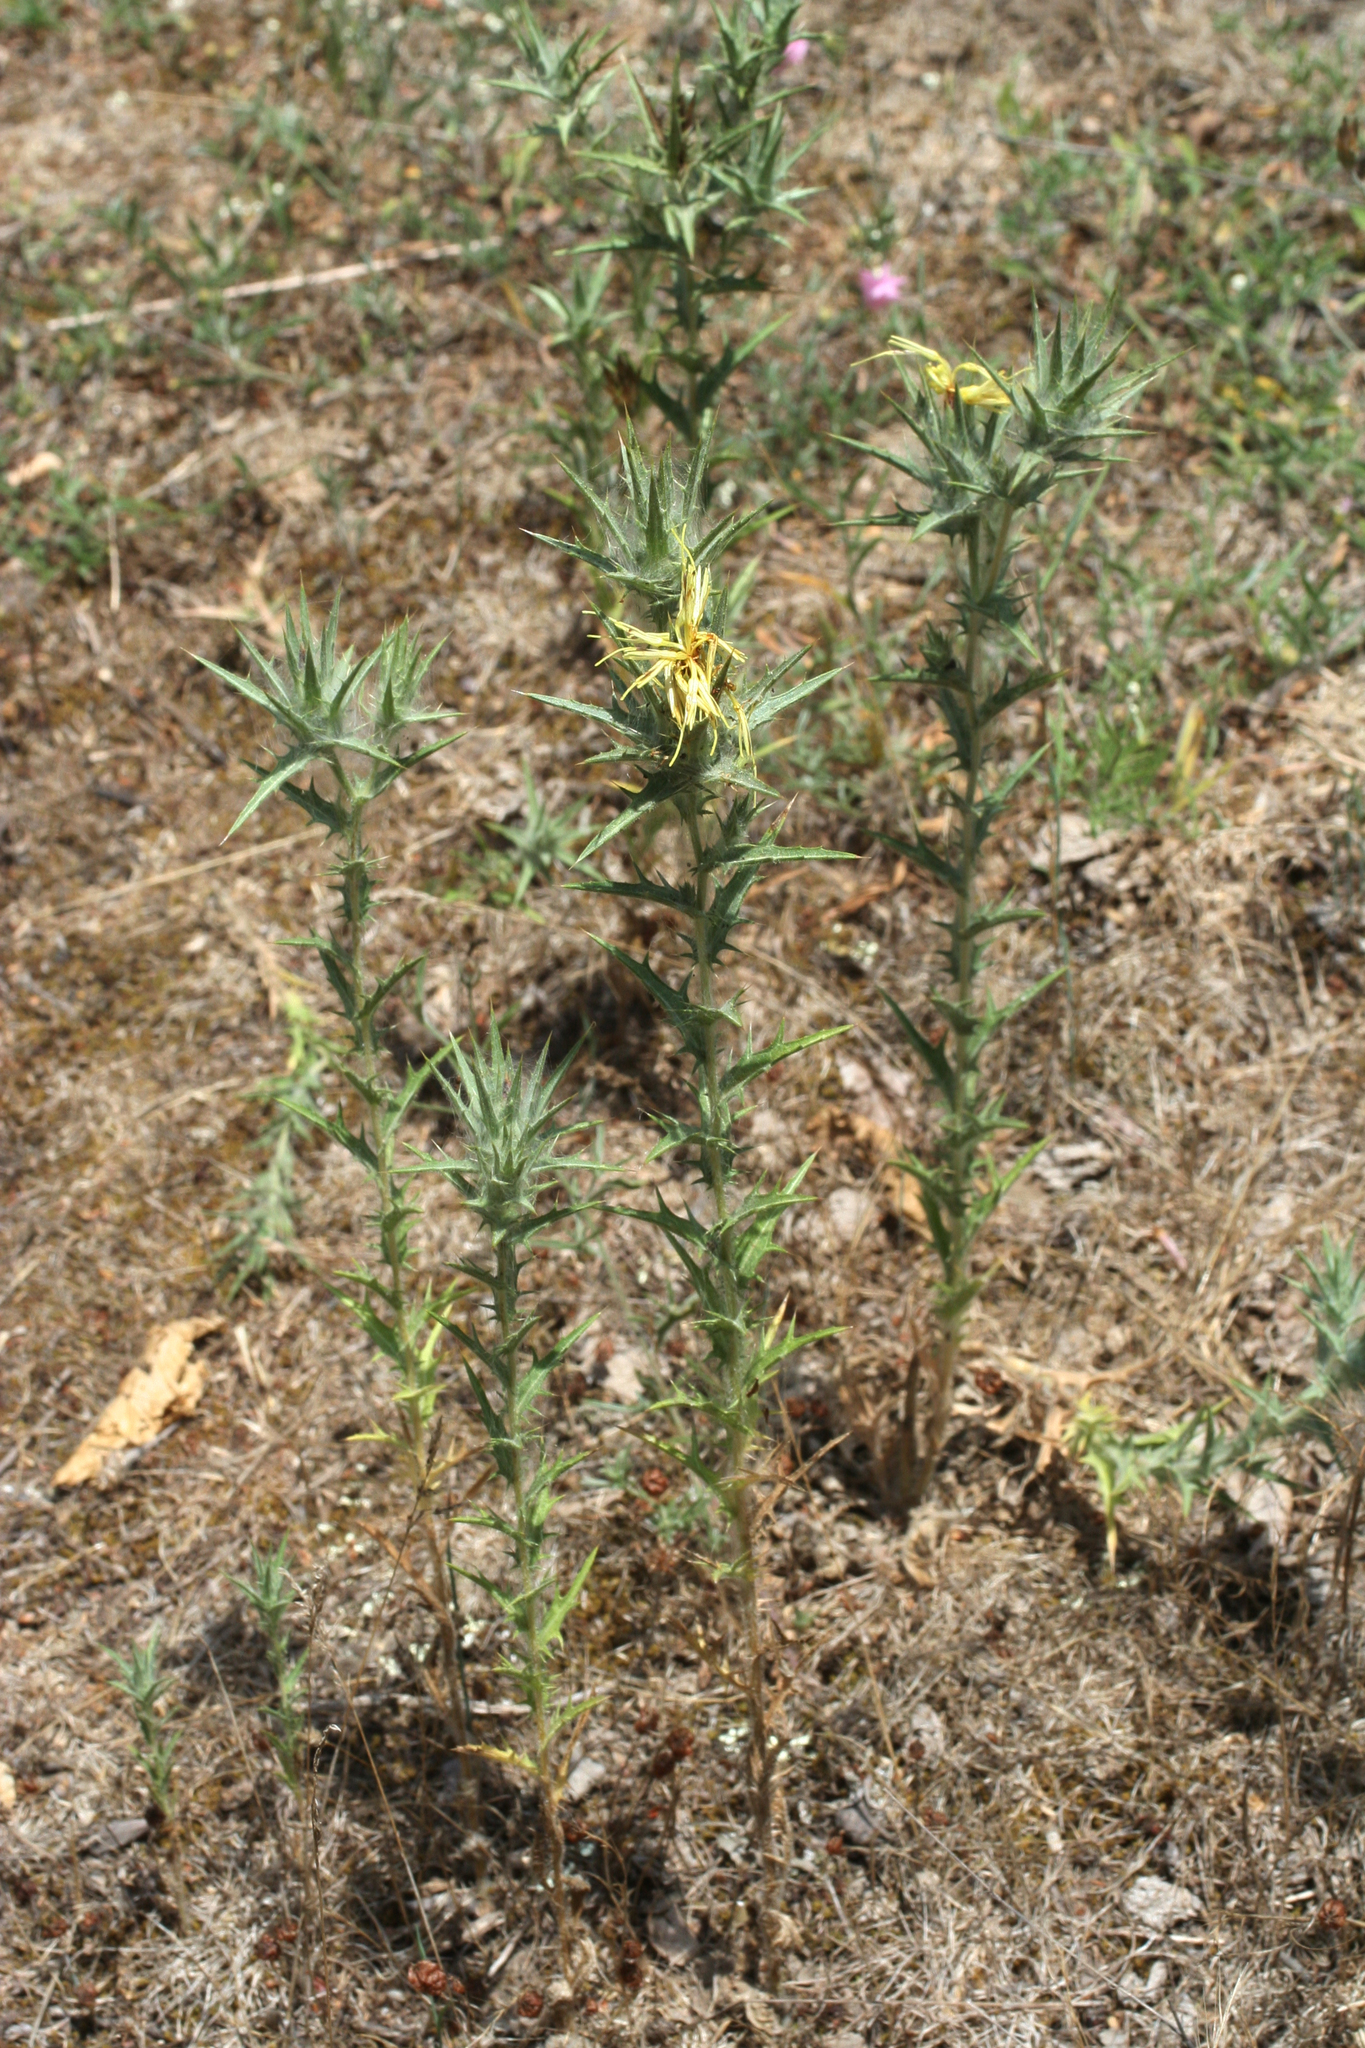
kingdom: Plantae
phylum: Tracheophyta
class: Magnoliopsida
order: Asterales
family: Asteraceae
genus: Carthamus
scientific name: Carthamus lanatus
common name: Downy safflower
